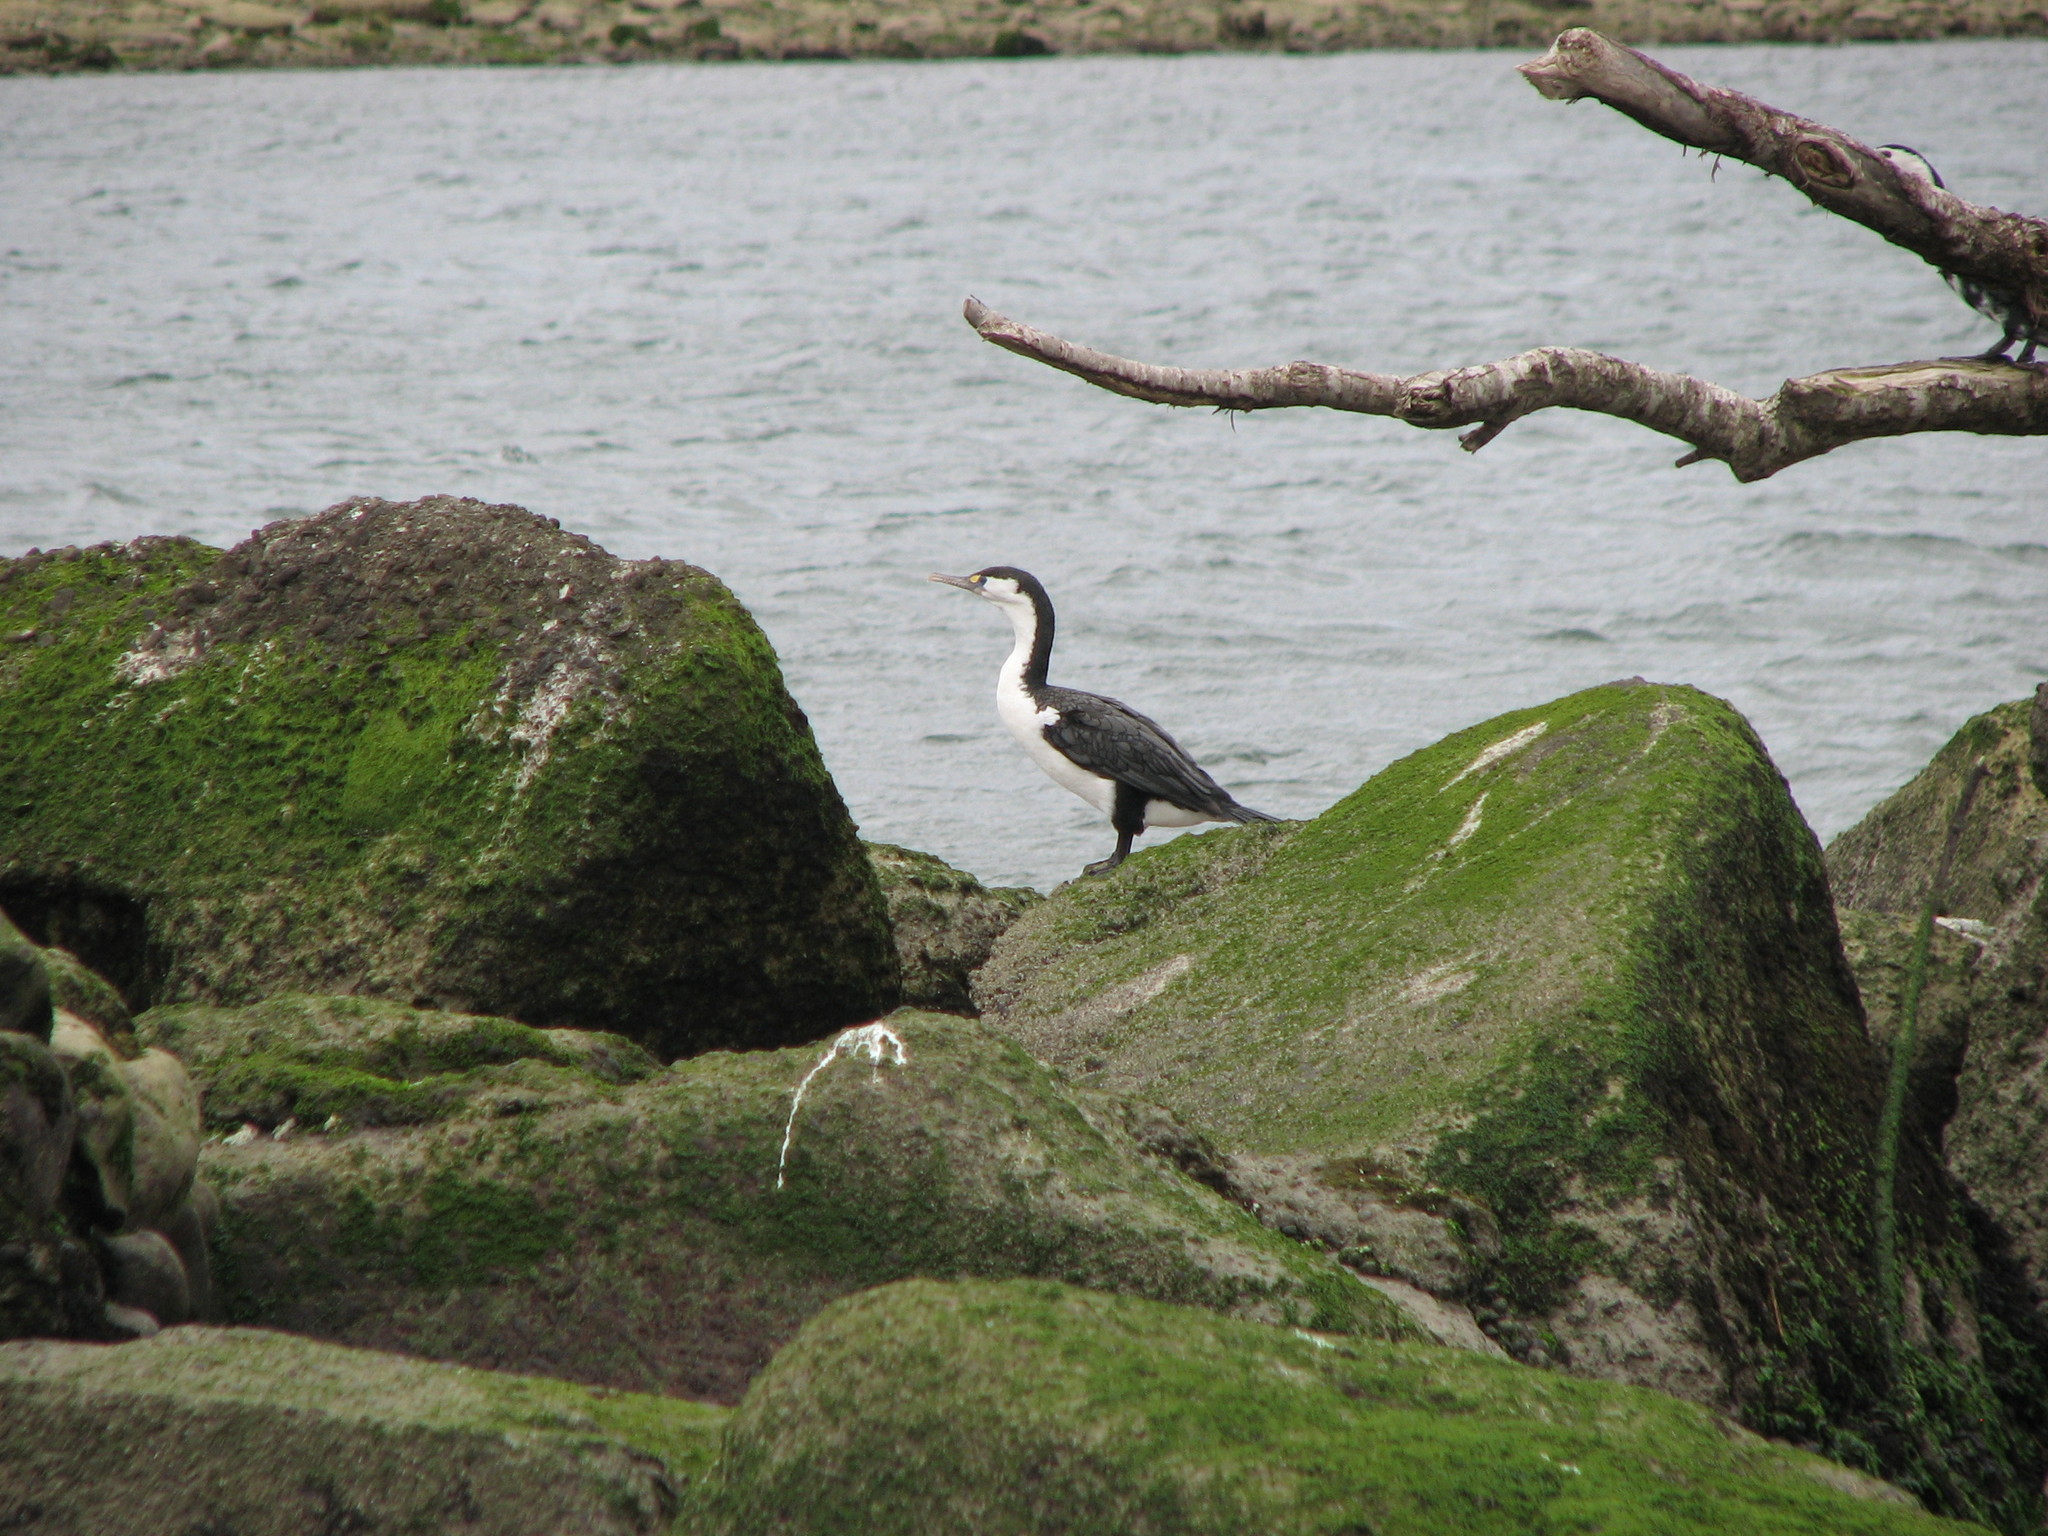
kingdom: Animalia
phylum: Chordata
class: Aves
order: Suliformes
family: Phalacrocoracidae
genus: Phalacrocorax
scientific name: Phalacrocorax varius
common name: Pied cormorant
